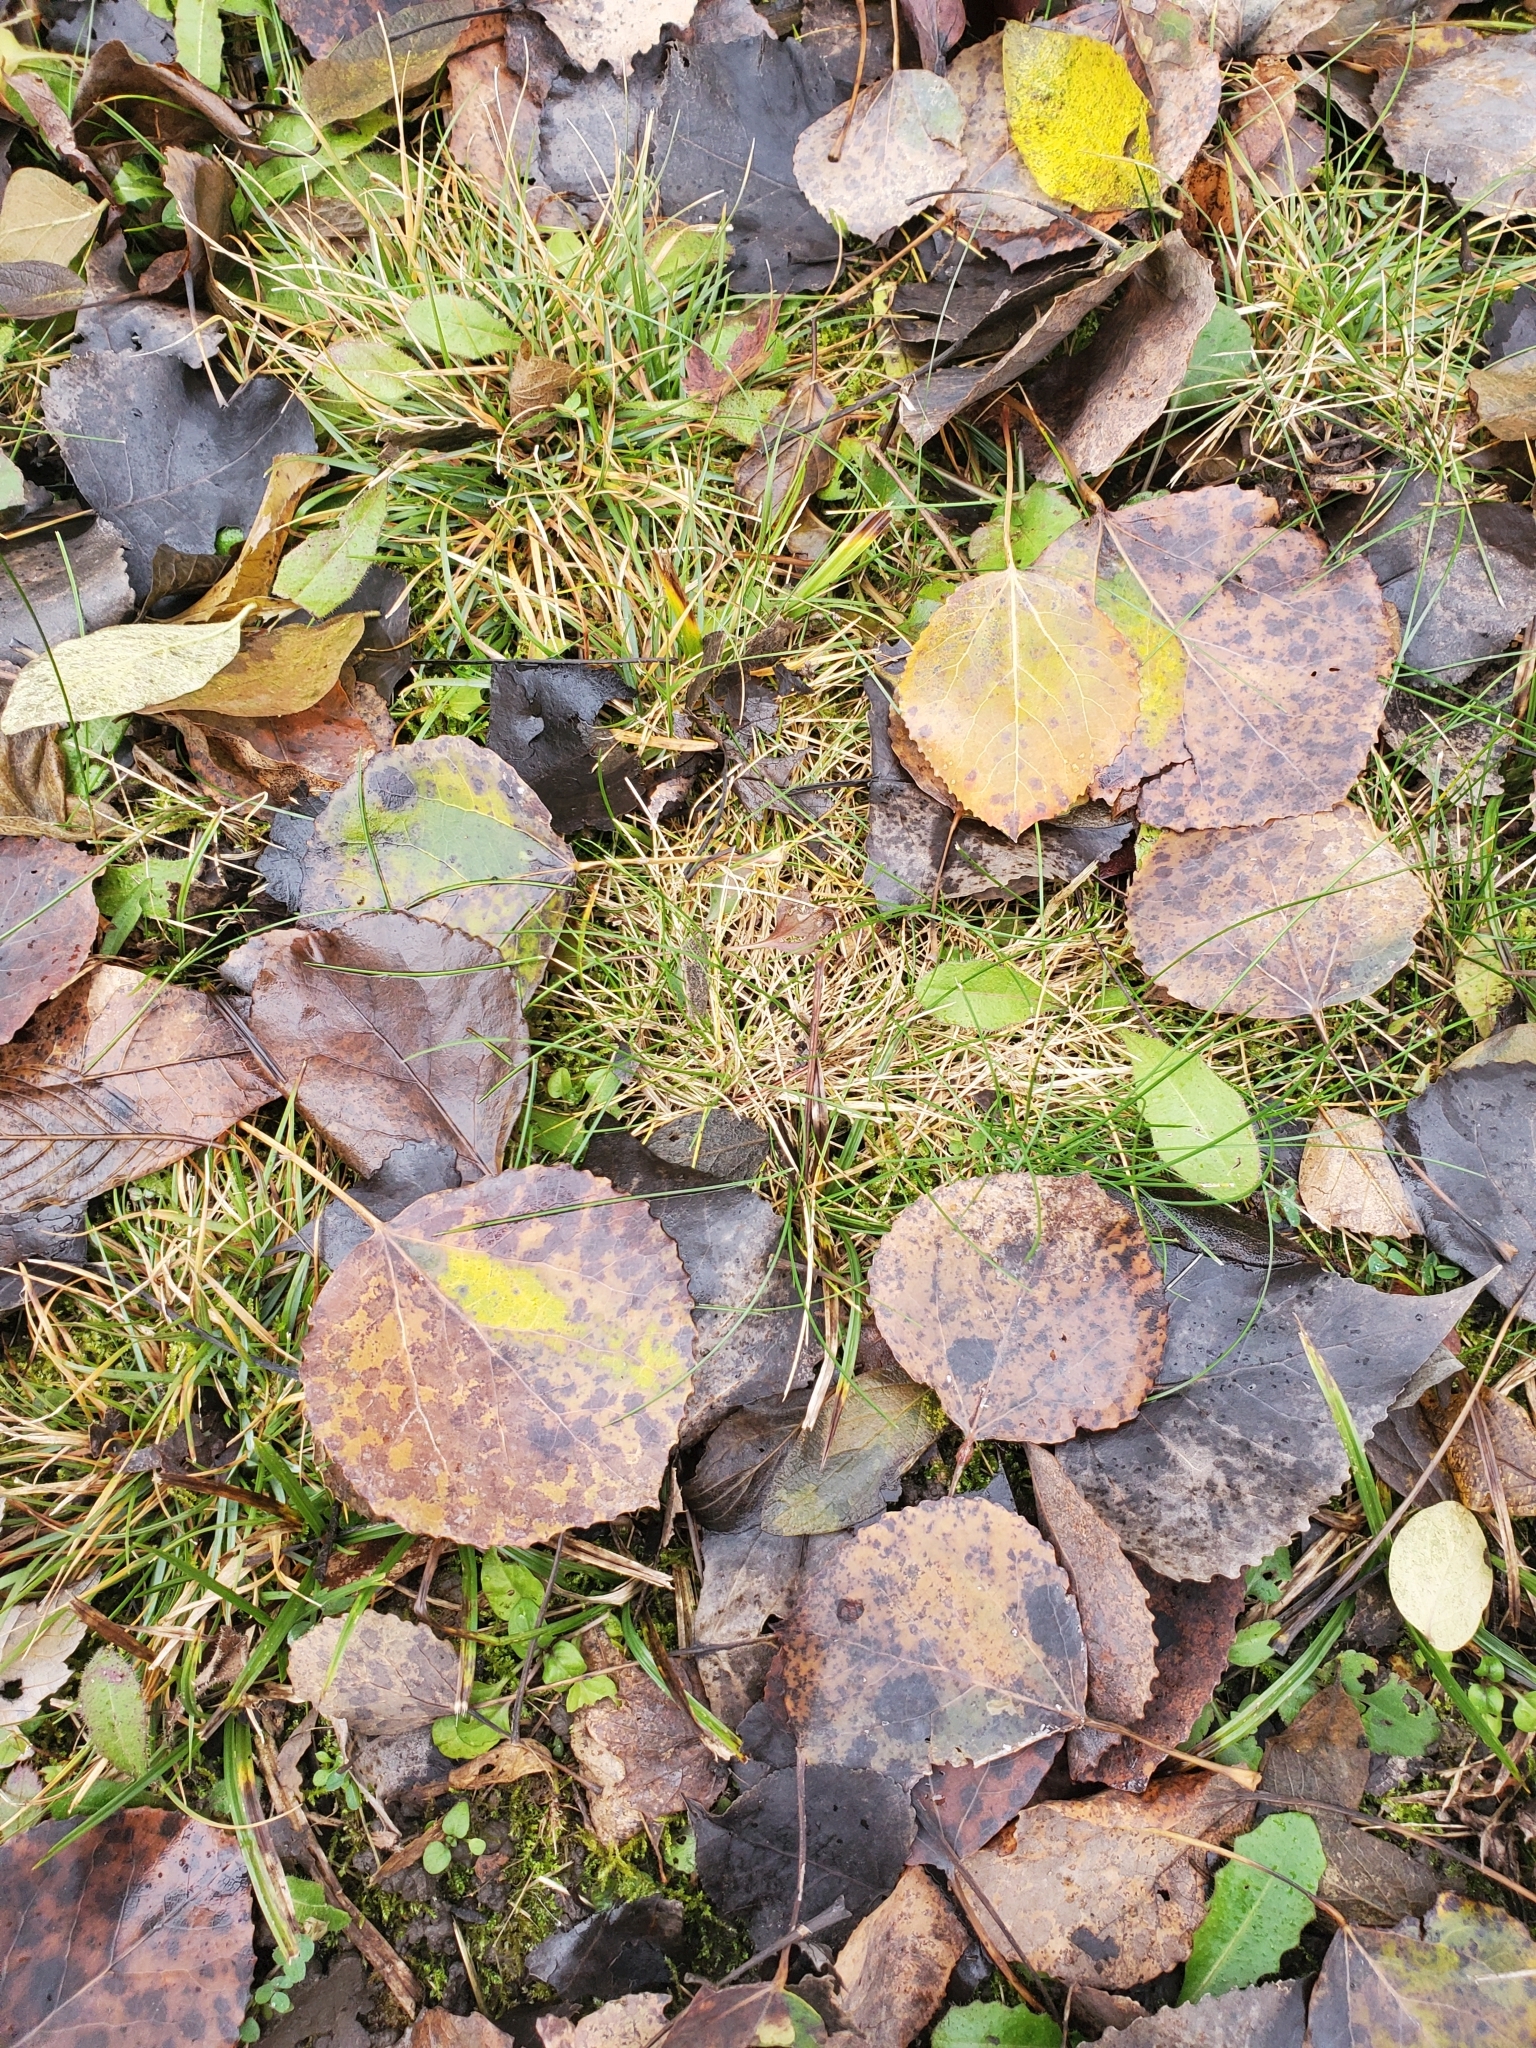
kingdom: Plantae
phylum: Tracheophyta
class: Magnoliopsida
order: Malpighiales
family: Salicaceae
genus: Populus
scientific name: Populus tremuloides
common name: Quaking aspen
